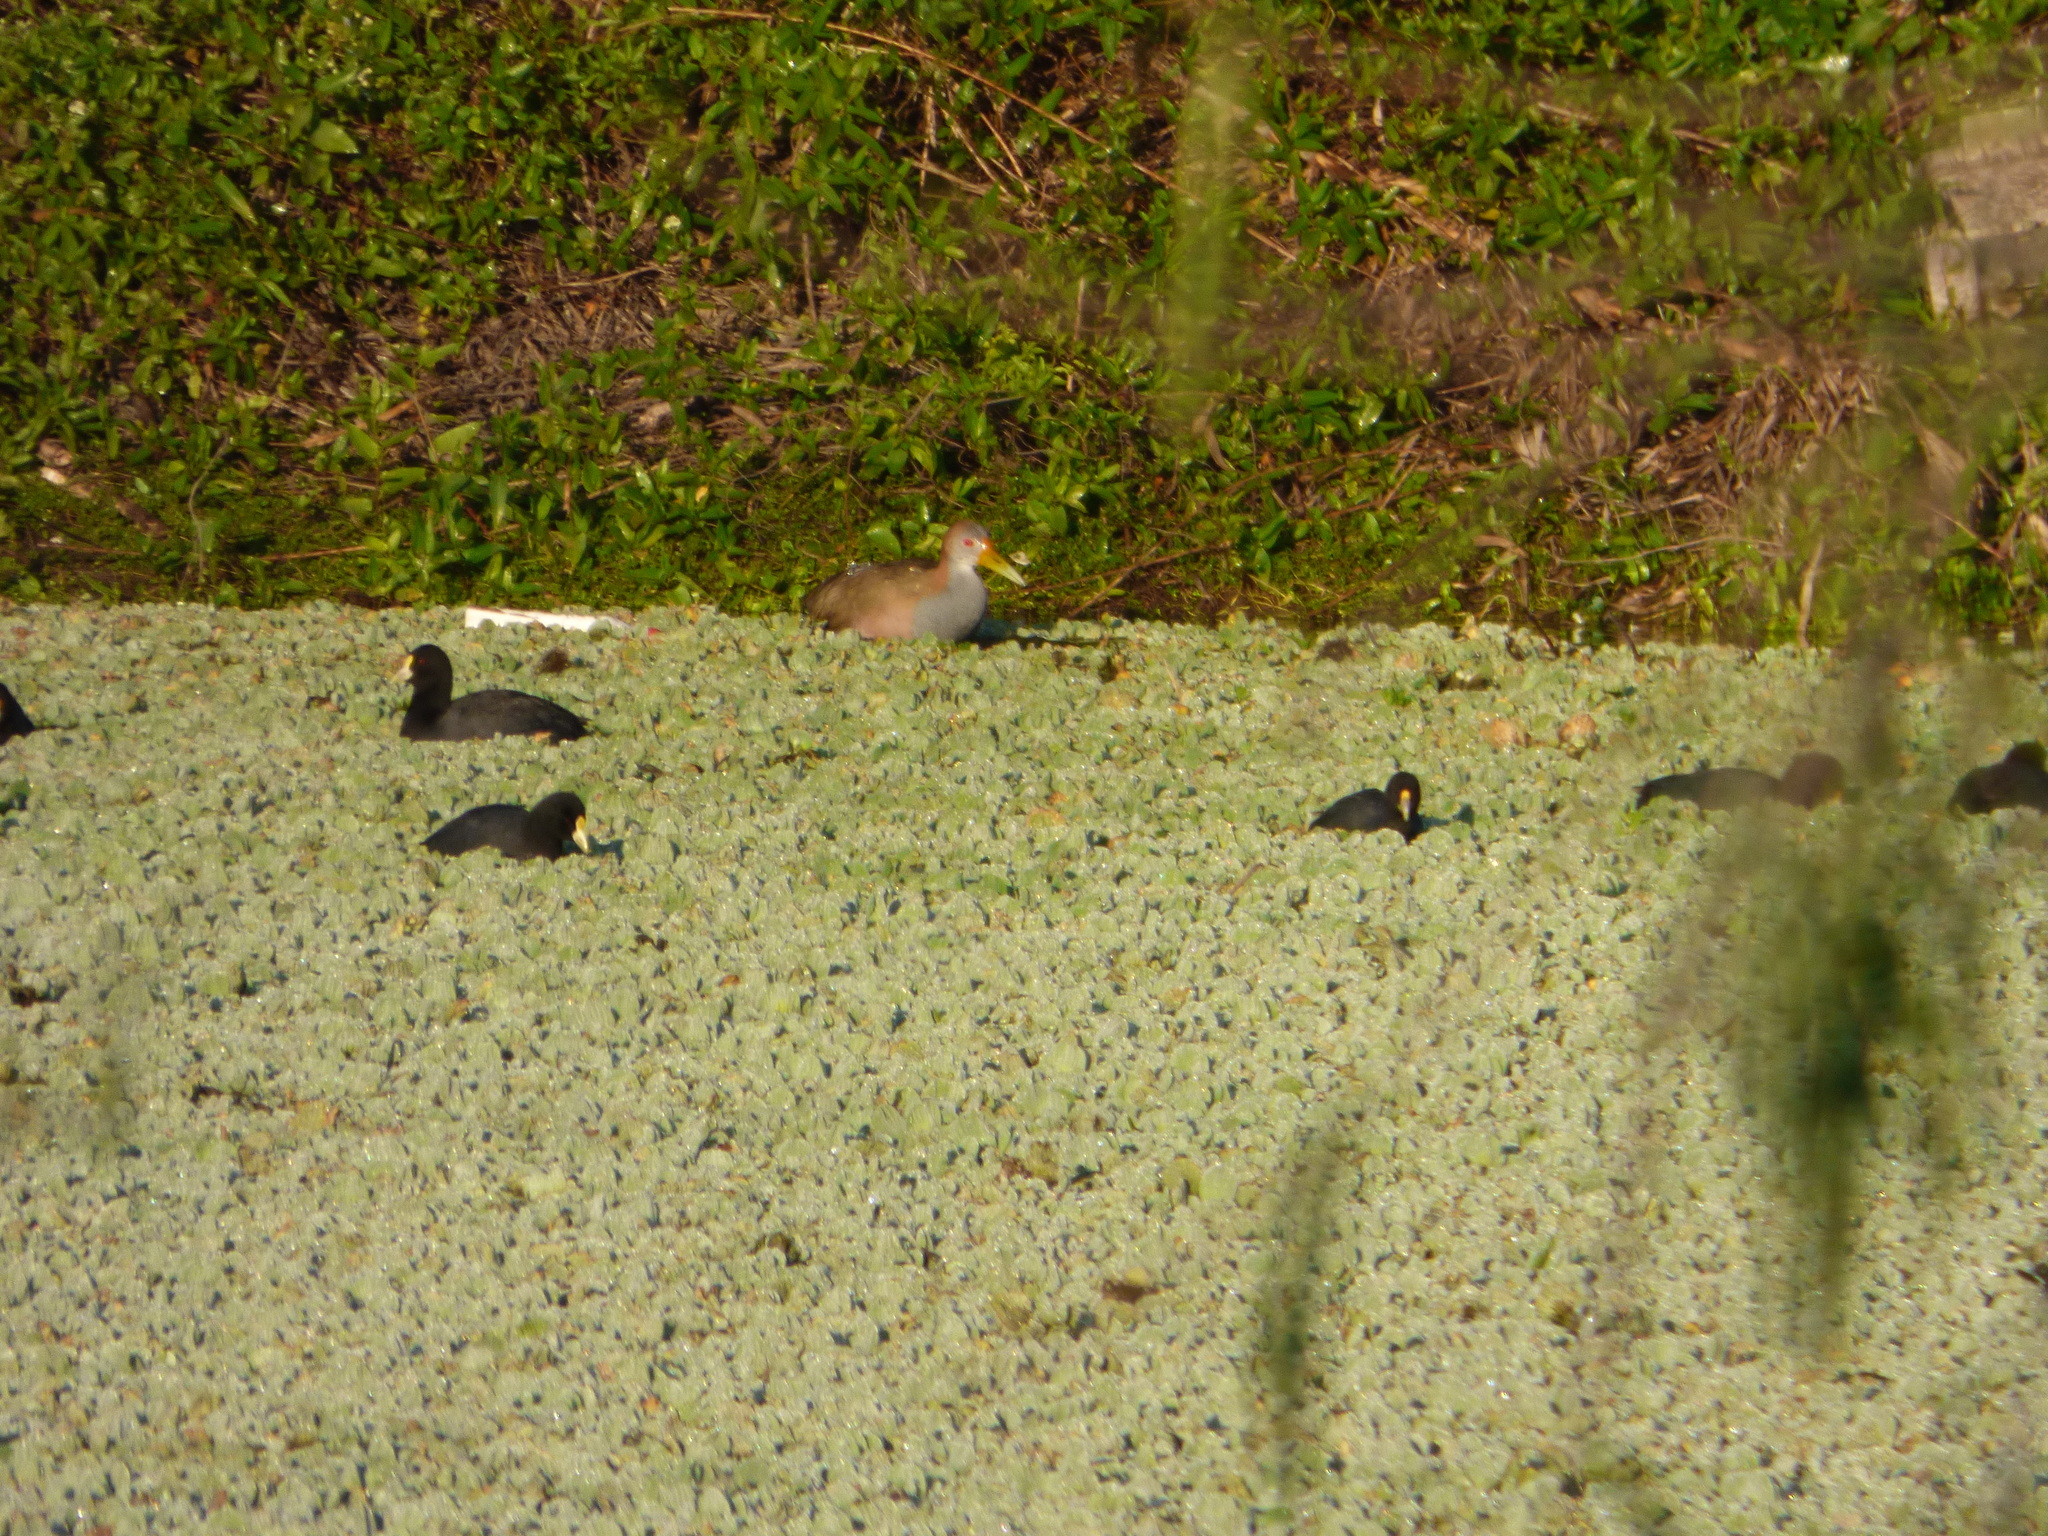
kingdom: Animalia
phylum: Chordata
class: Aves
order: Gruiformes
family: Rallidae
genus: Fulica
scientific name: Fulica leucoptera
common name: White-winged coot
